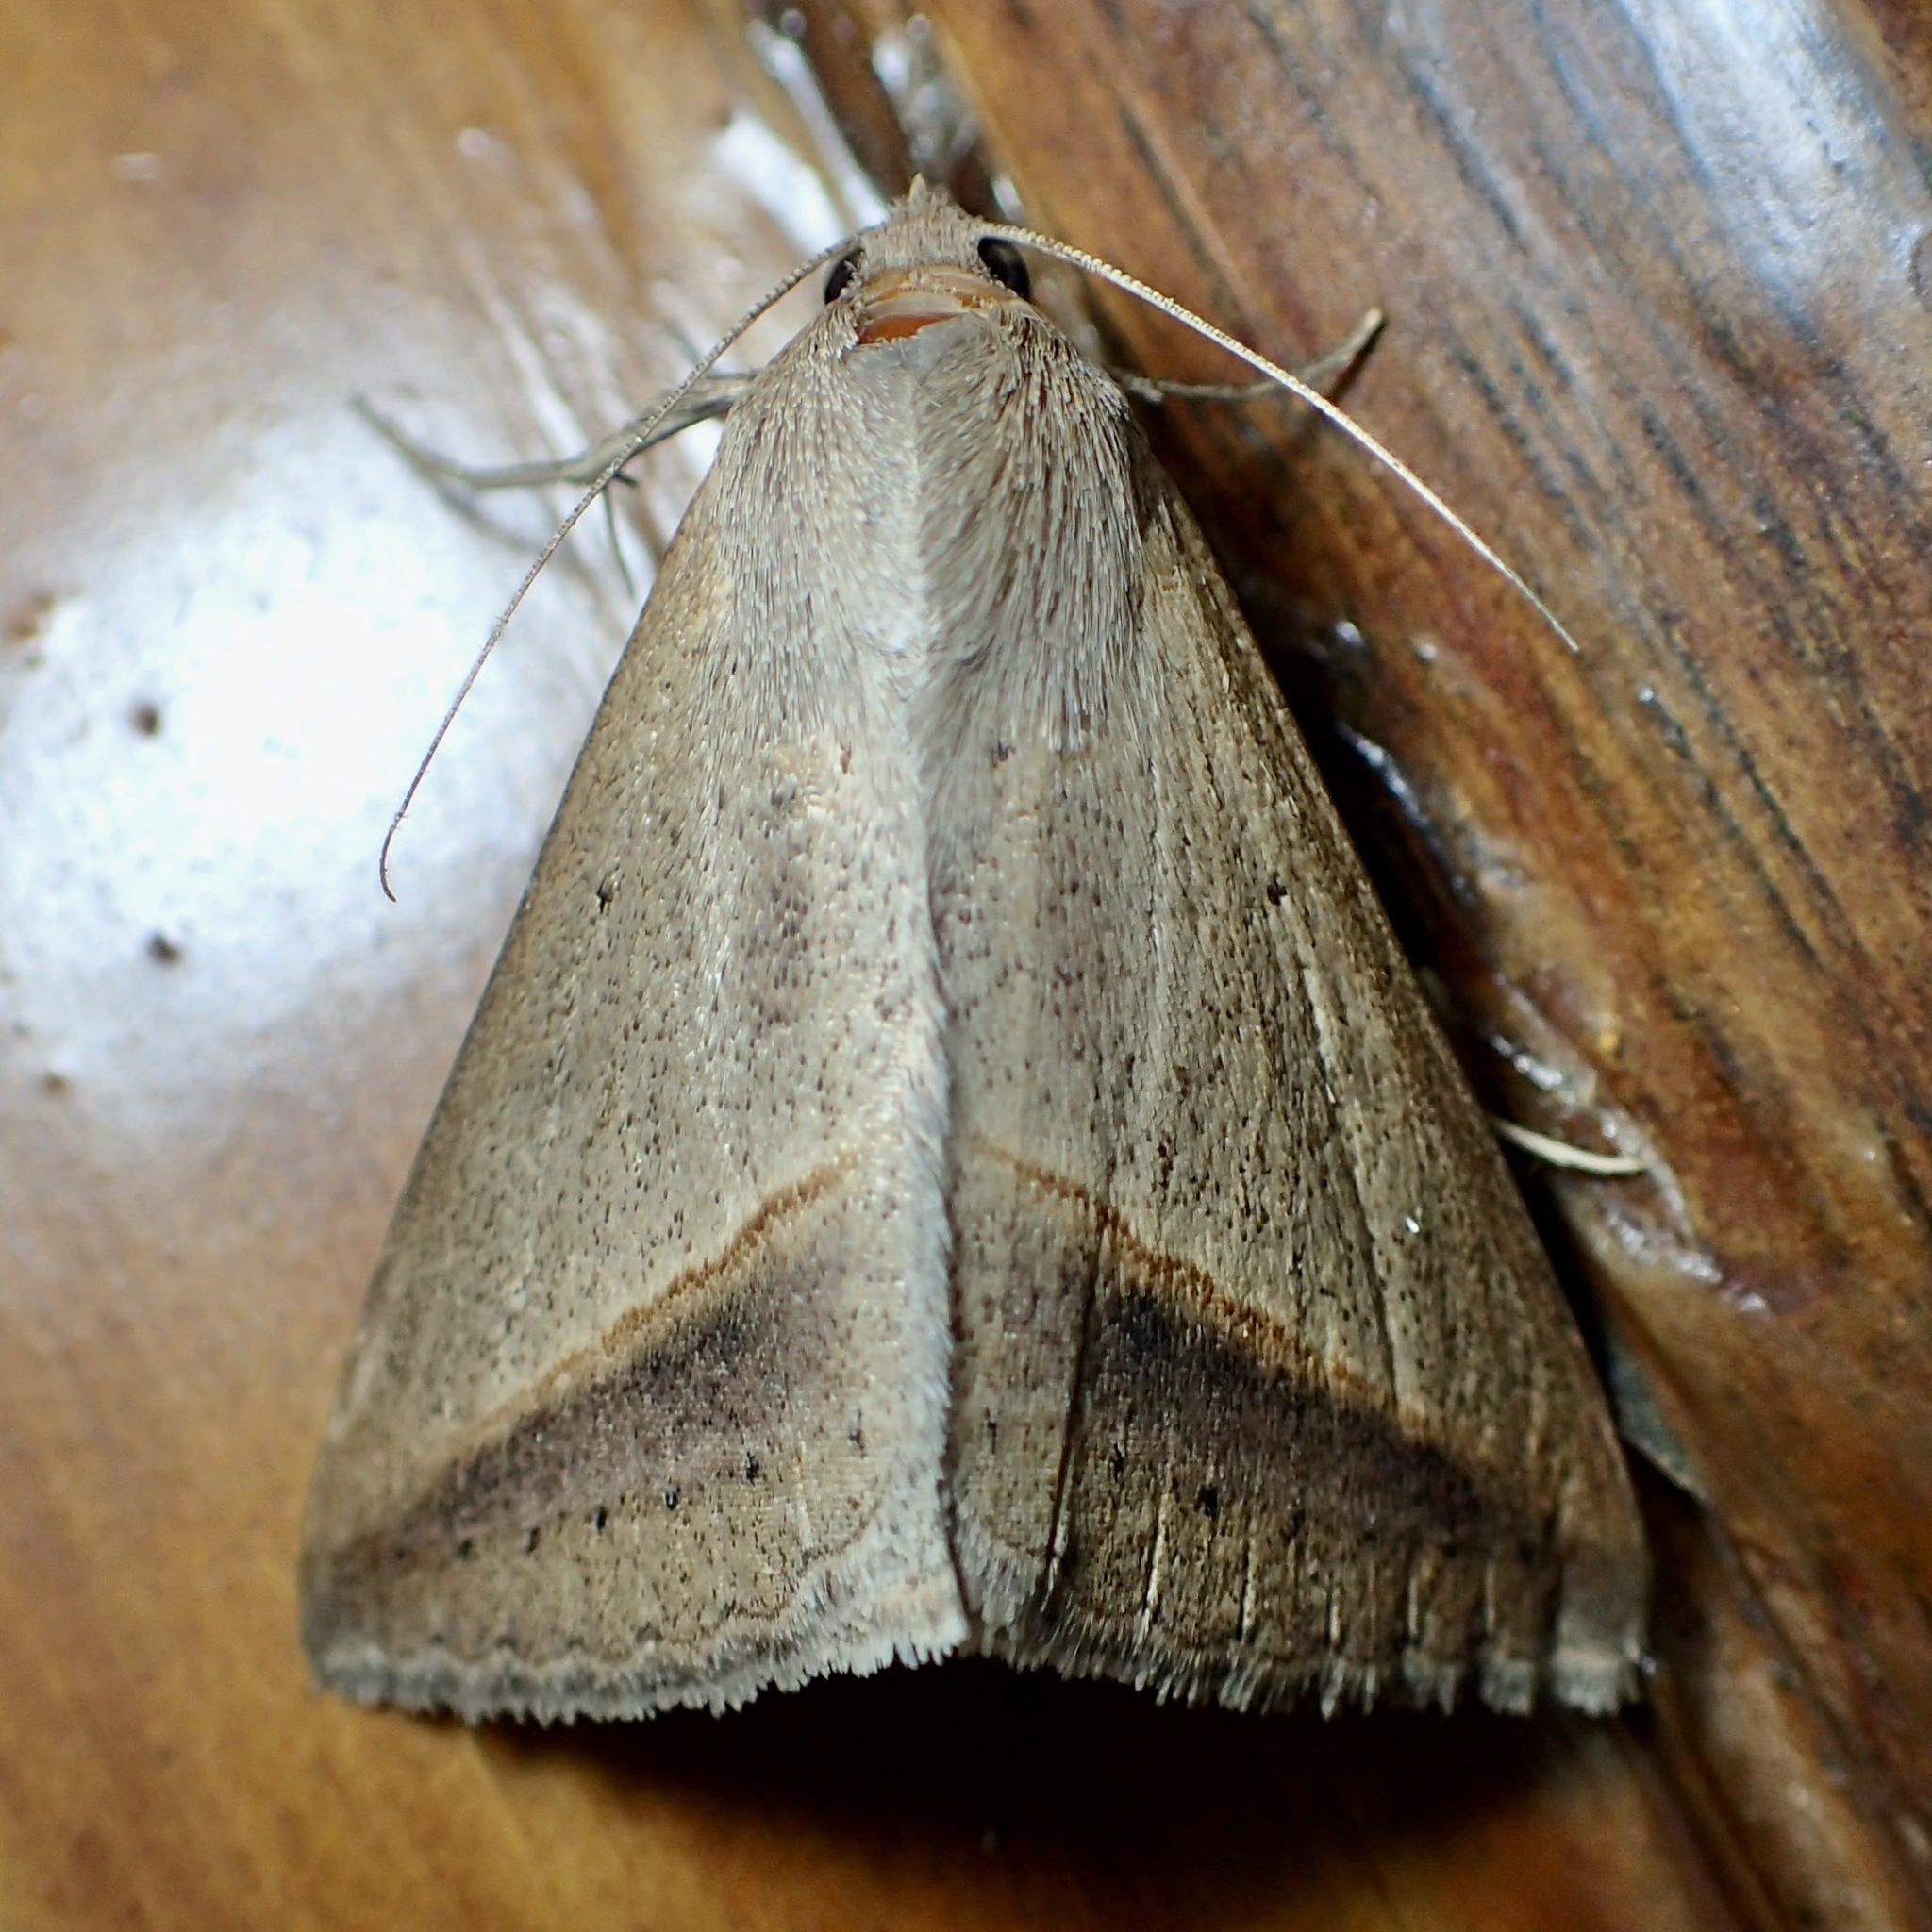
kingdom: Animalia
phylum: Arthropoda
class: Insecta
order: Lepidoptera
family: Erebidae
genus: Mocis
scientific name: Mocis frugalis
